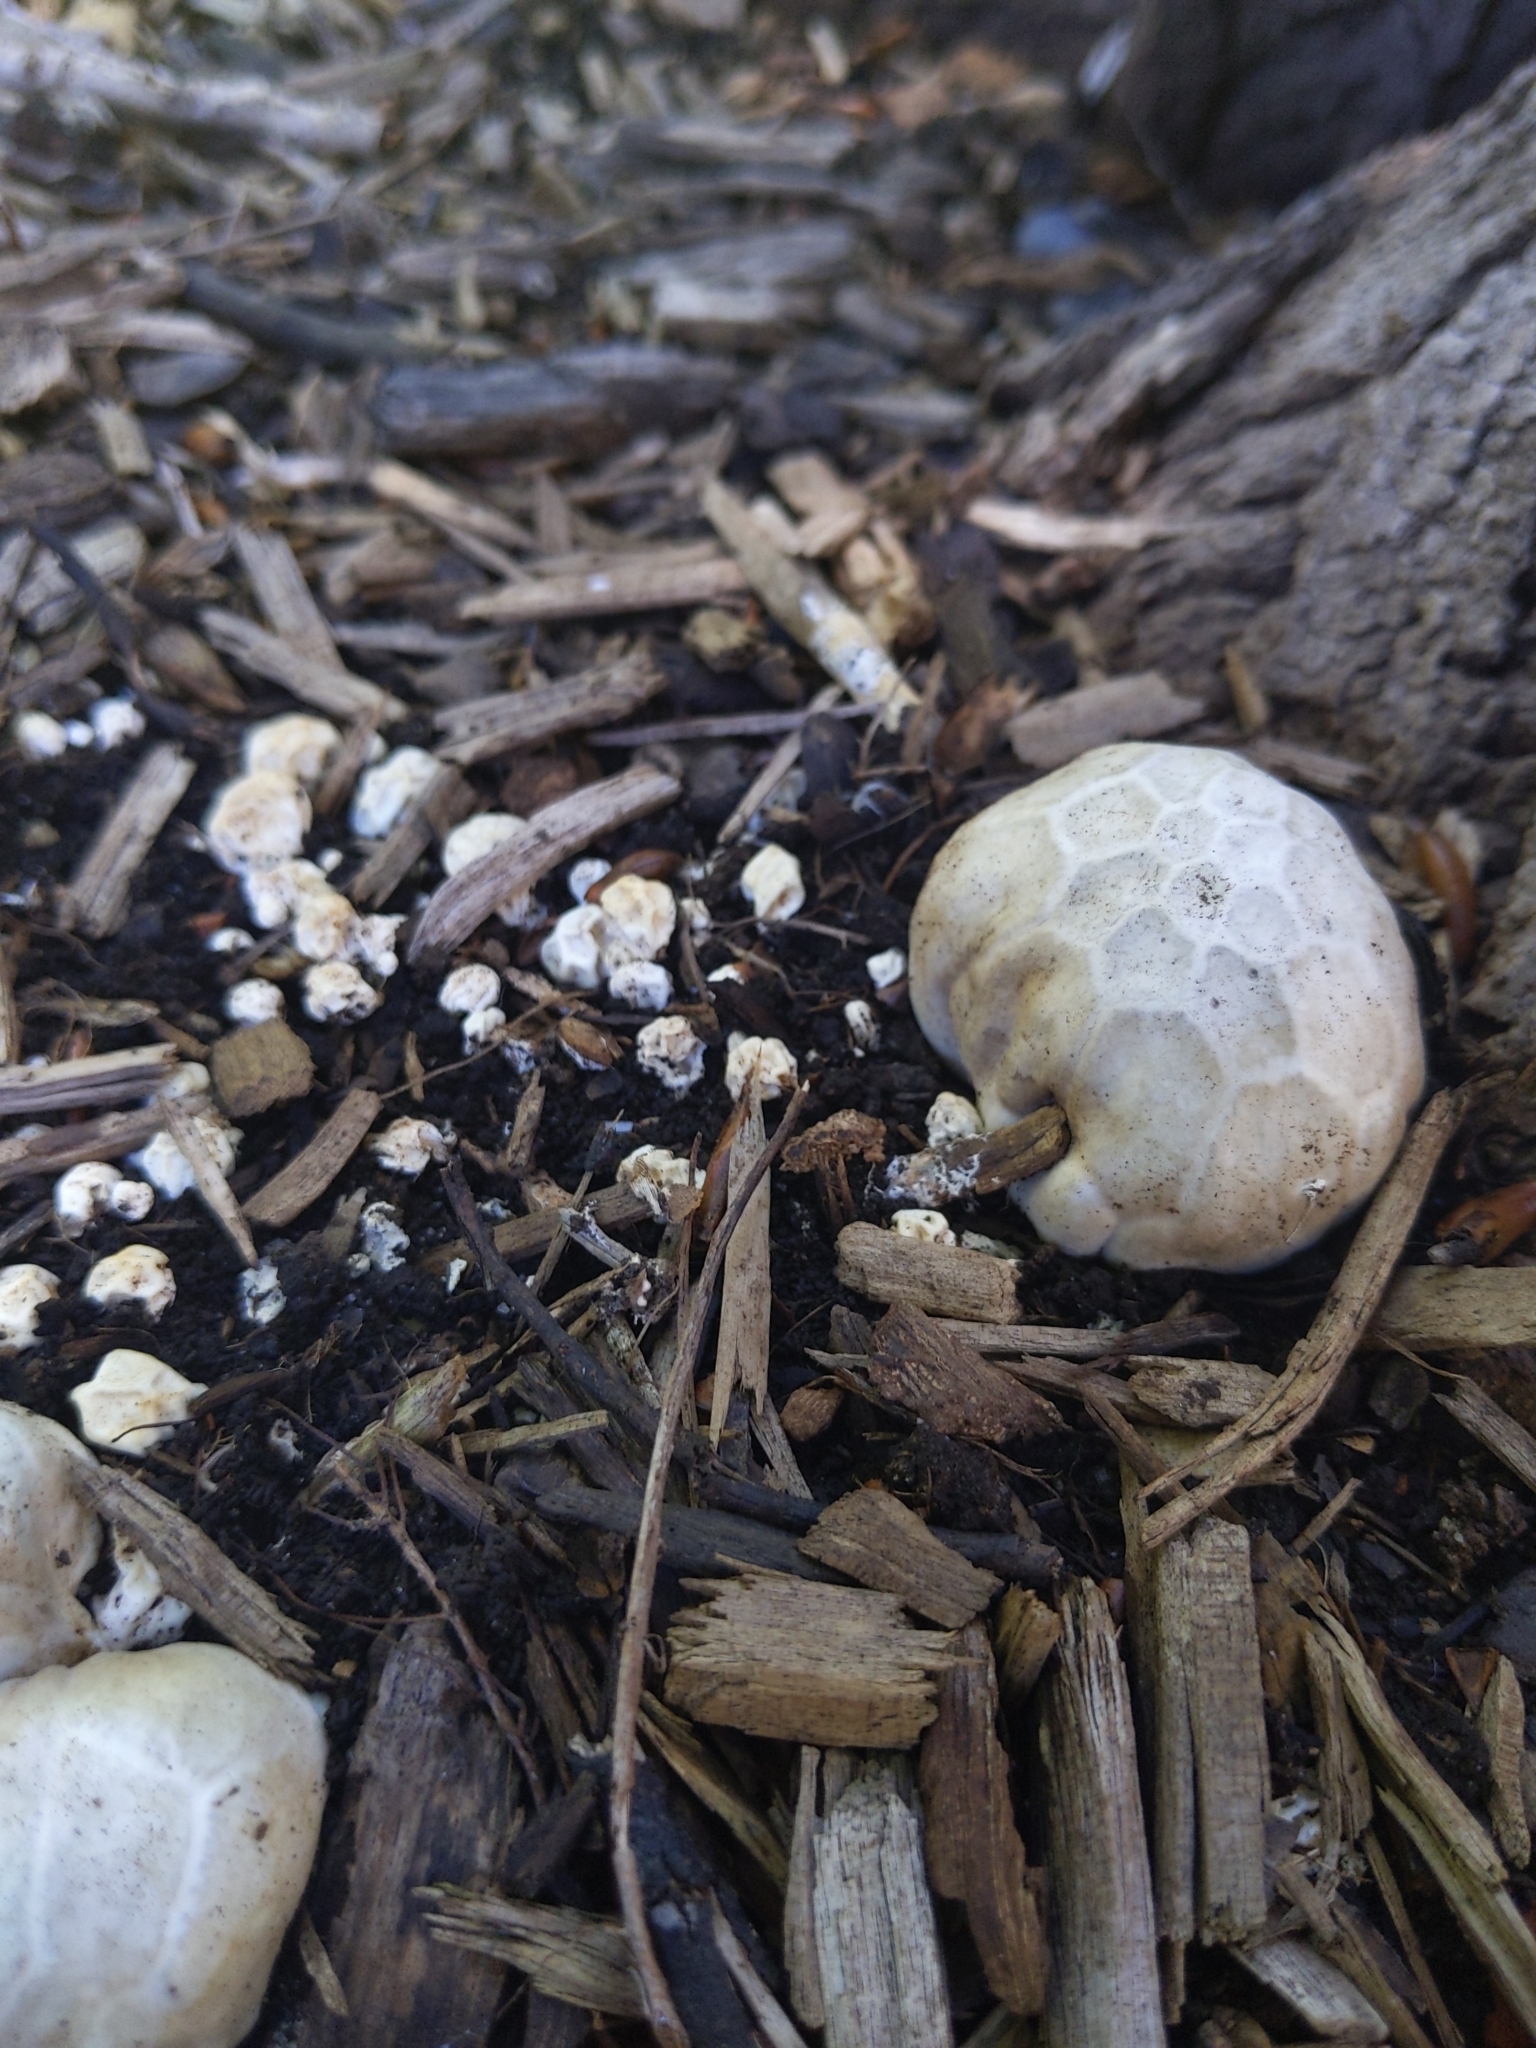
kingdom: Fungi
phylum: Basidiomycota
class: Agaricomycetes
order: Phallales
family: Phallaceae
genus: Clathrus
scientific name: Clathrus ruber
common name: Red cage
